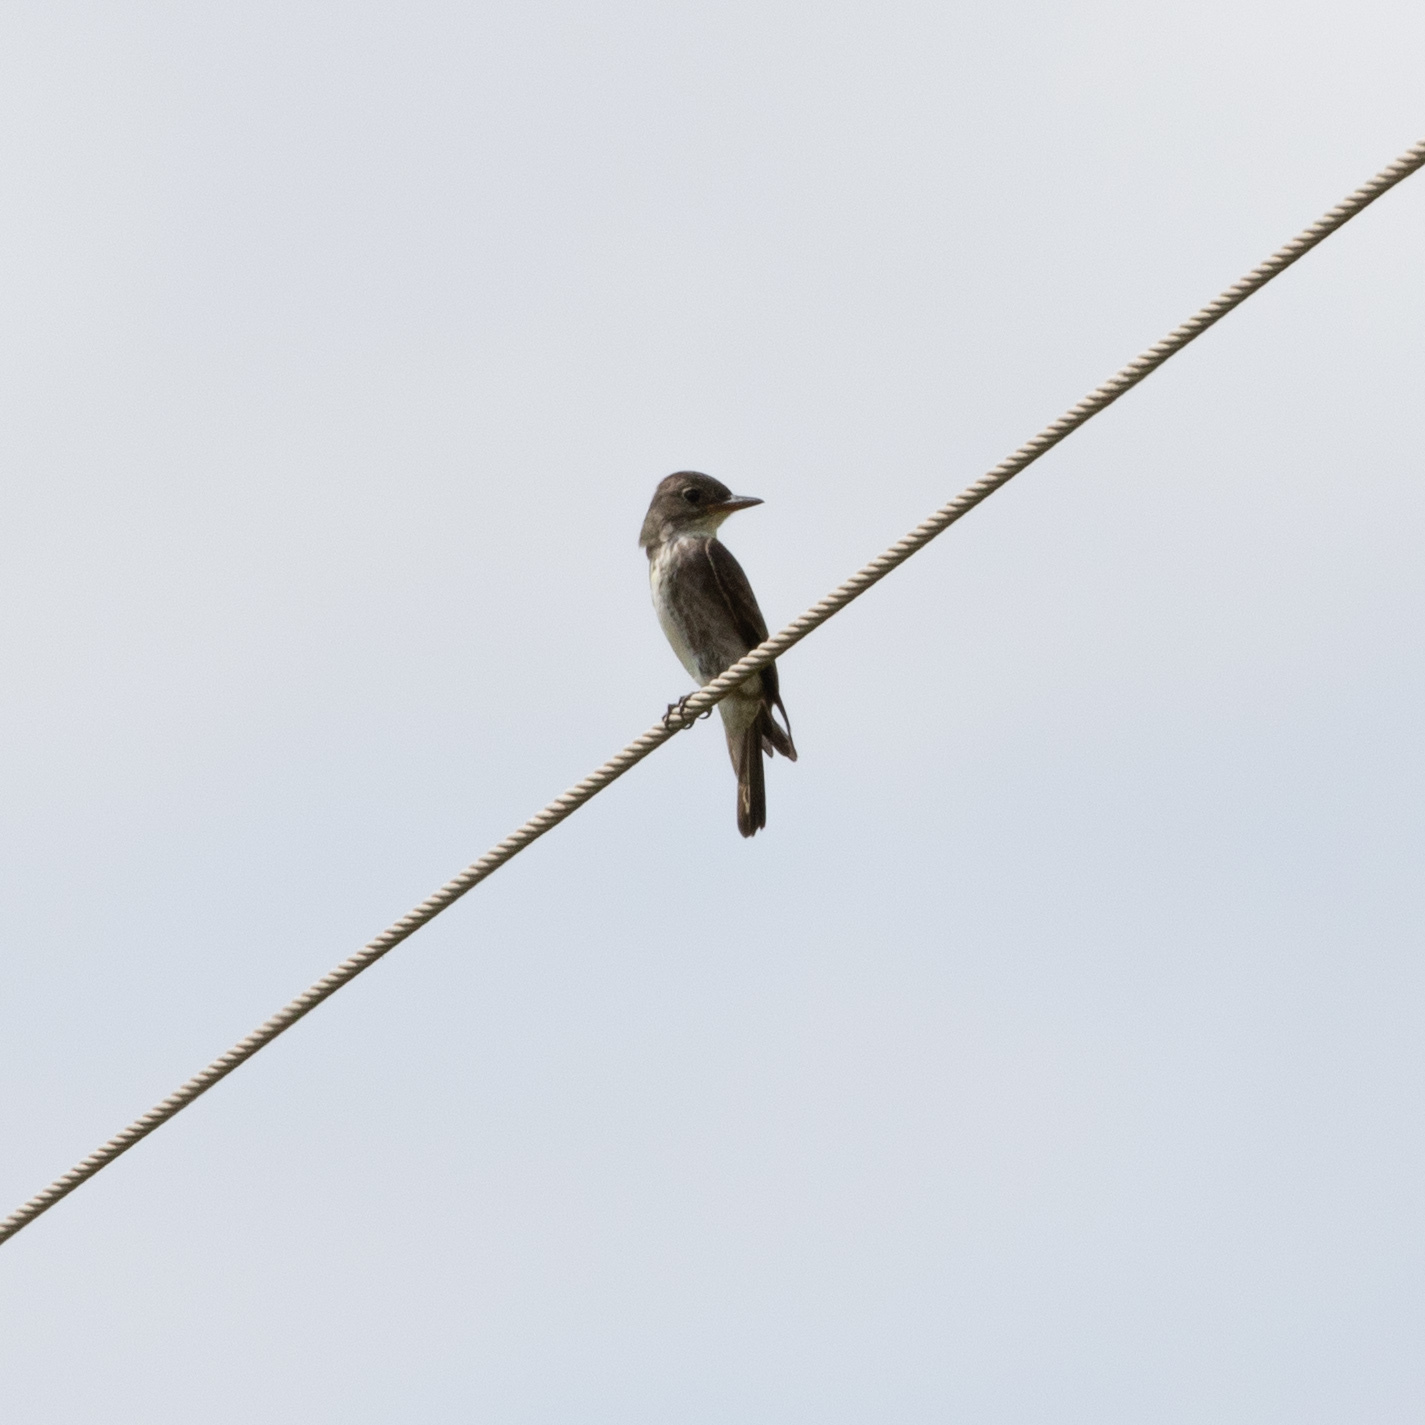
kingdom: Animalia
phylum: Chordata
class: Aves
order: Passeriformes
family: Tyrannidae
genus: Contopus
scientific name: Contopus cooperi
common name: Olive-sided flycatcher
